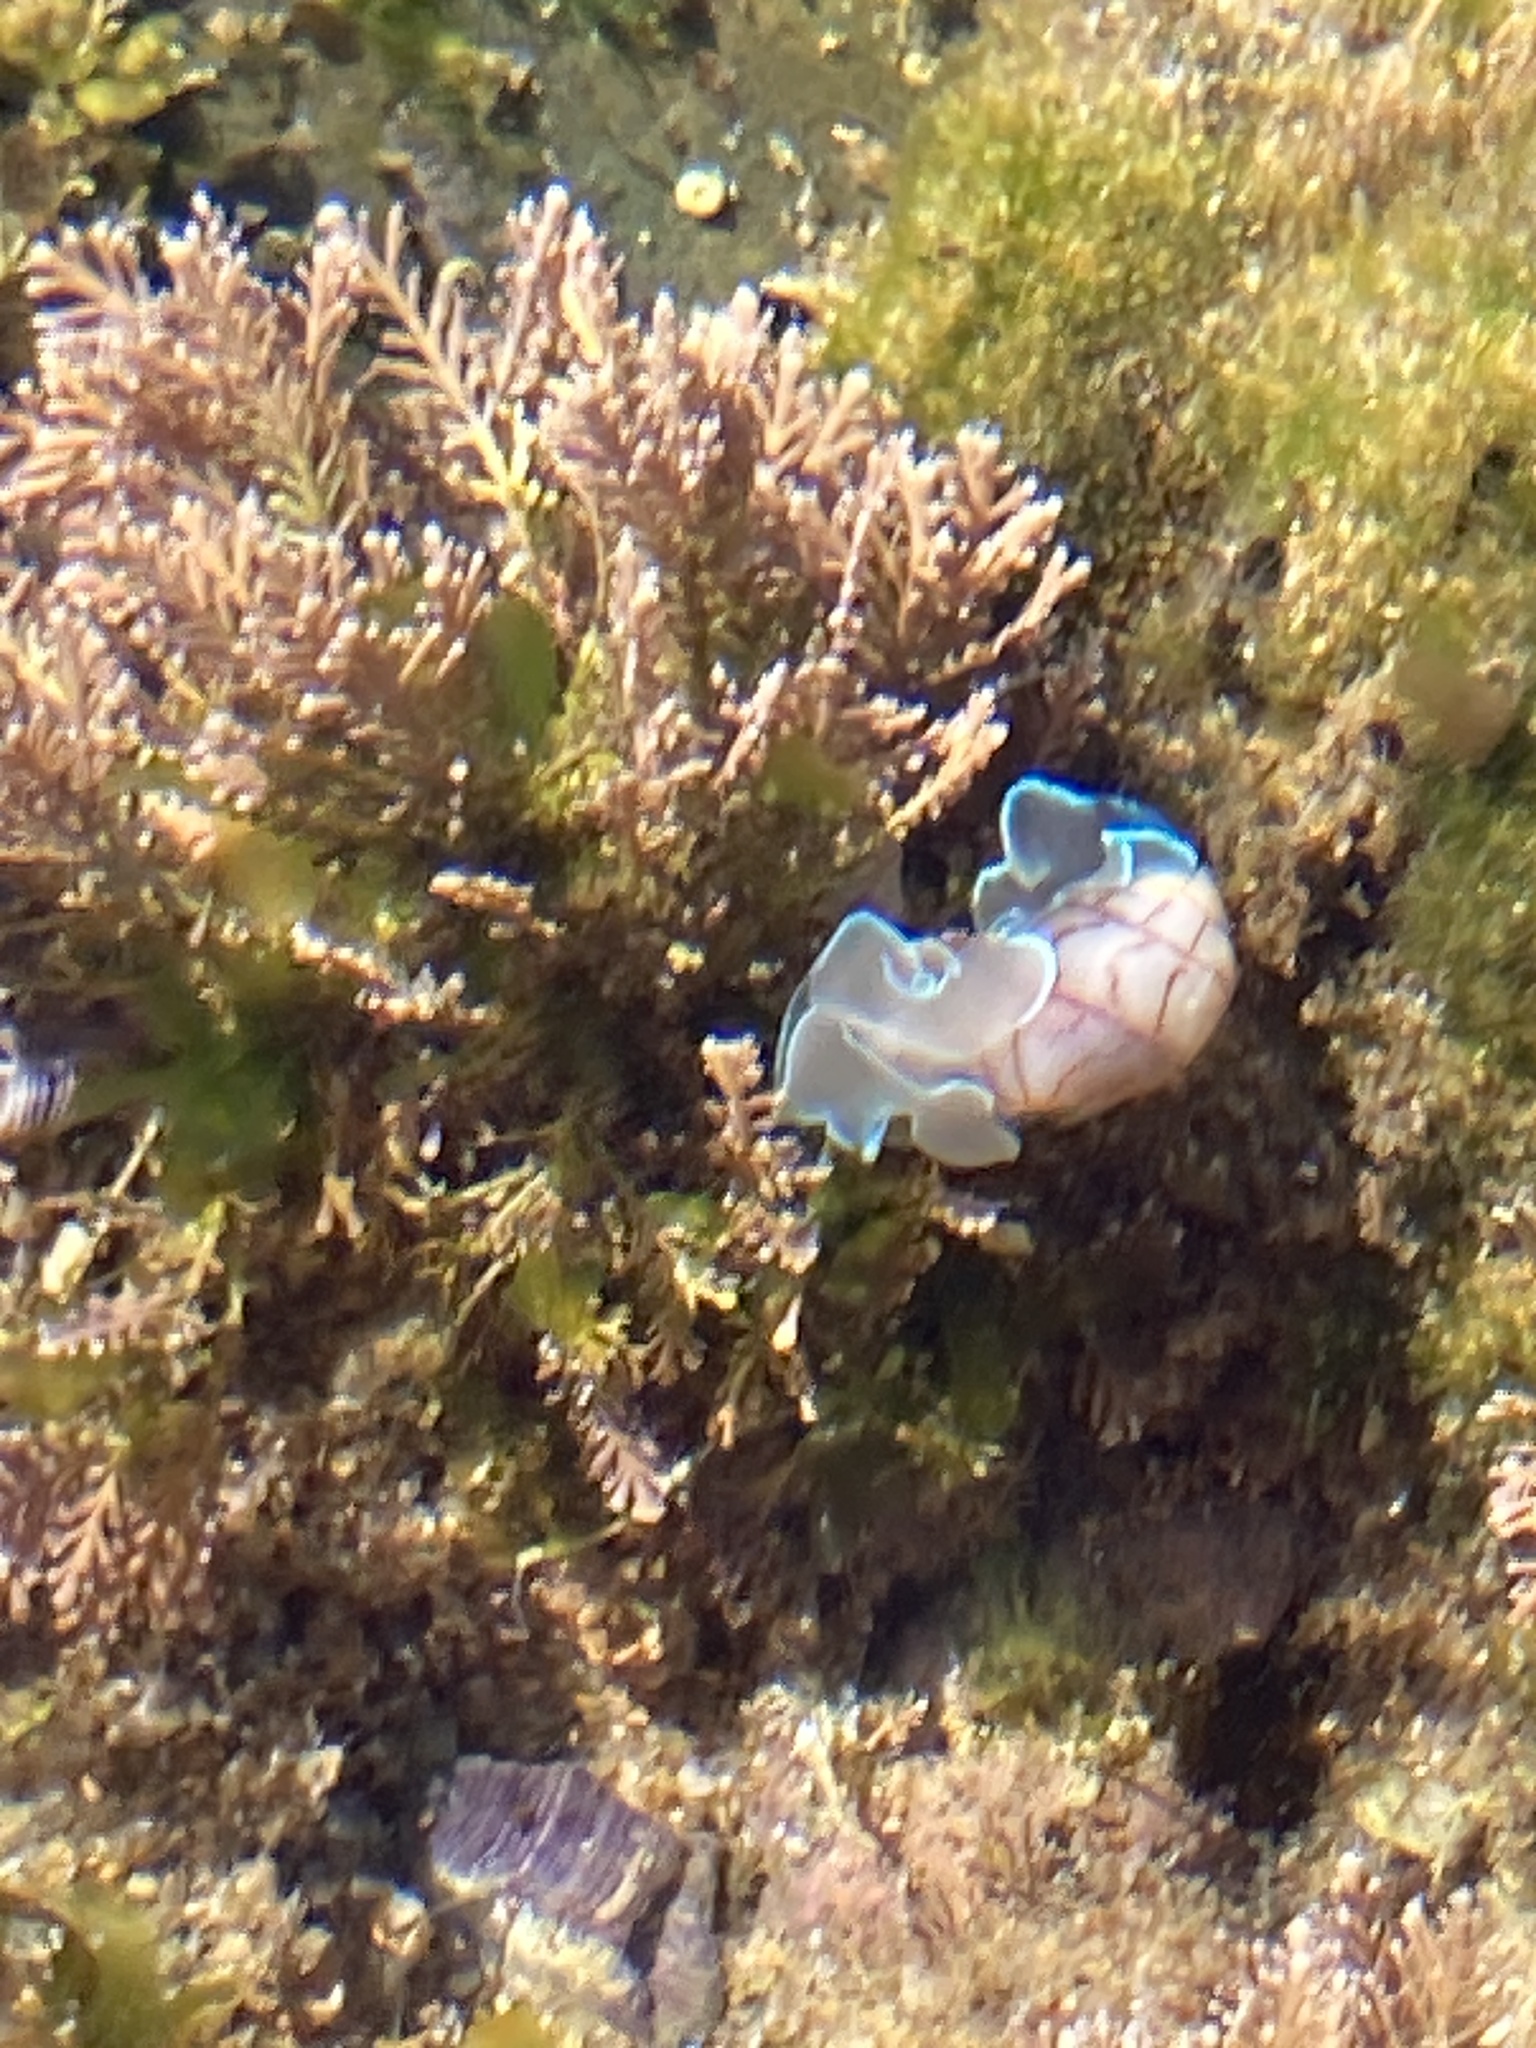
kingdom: Animalia
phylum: Mollusca
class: Gastropoda
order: Cephalaspidea
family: Aplustridae
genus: Bullina
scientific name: Bullina lineata
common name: Lined bubble snail
